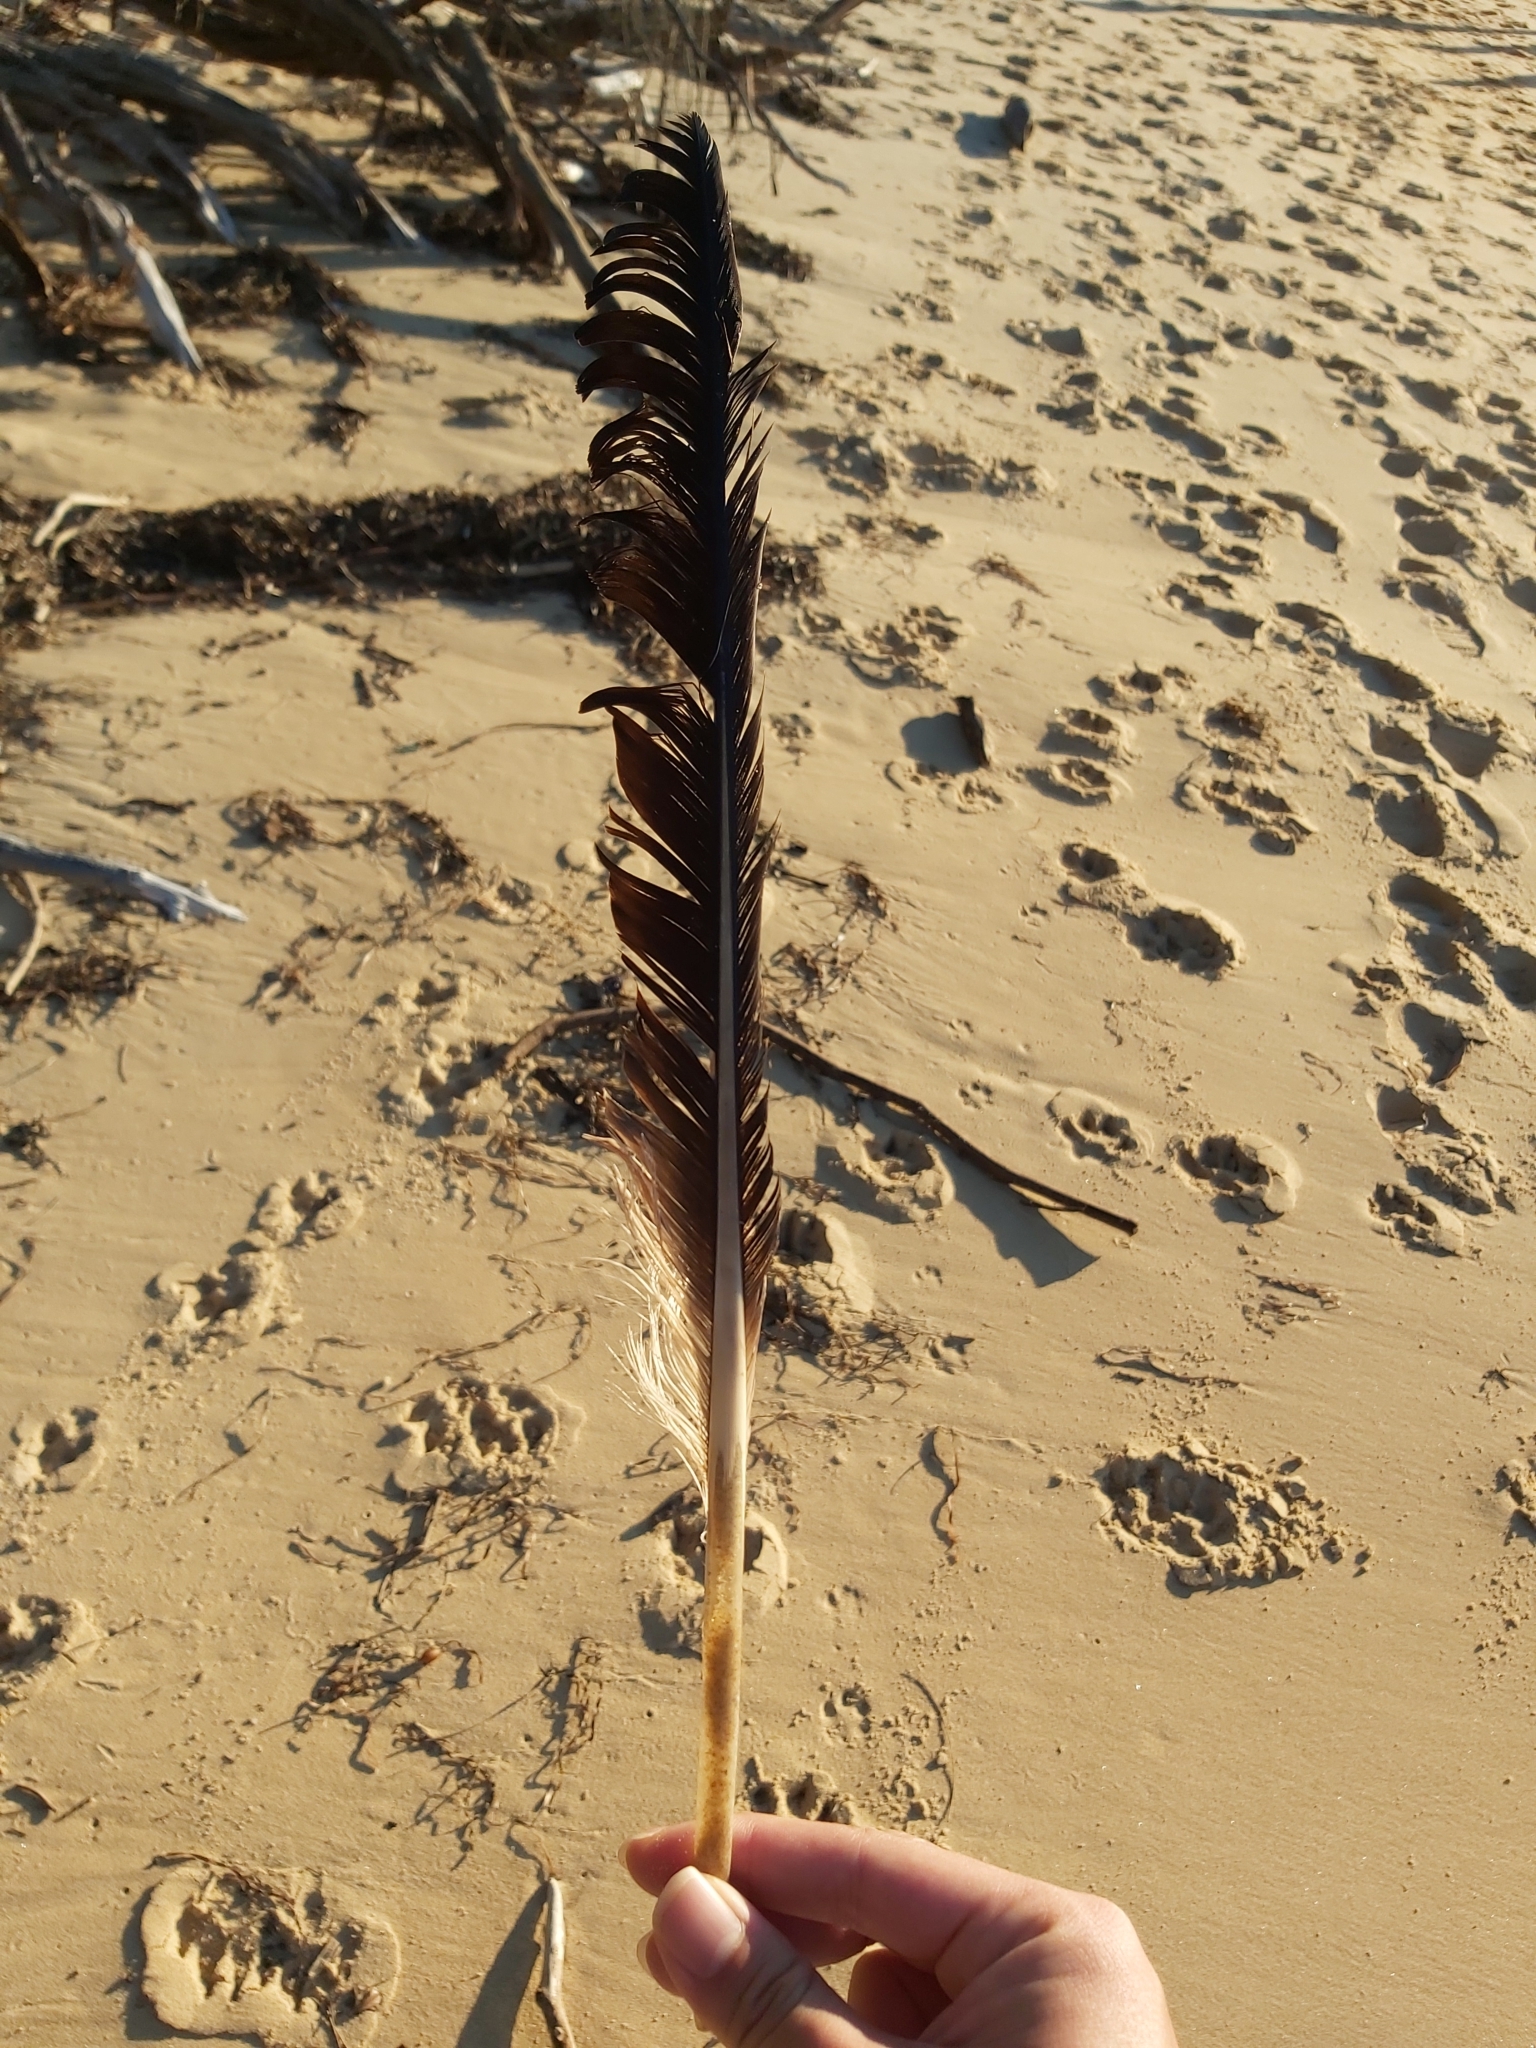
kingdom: Animalia
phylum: Chordata
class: Aves
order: Pelecaniformes
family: Pelecanidae
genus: Pelecanus
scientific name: Pelecanus conspicillatus
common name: Australian pelican
